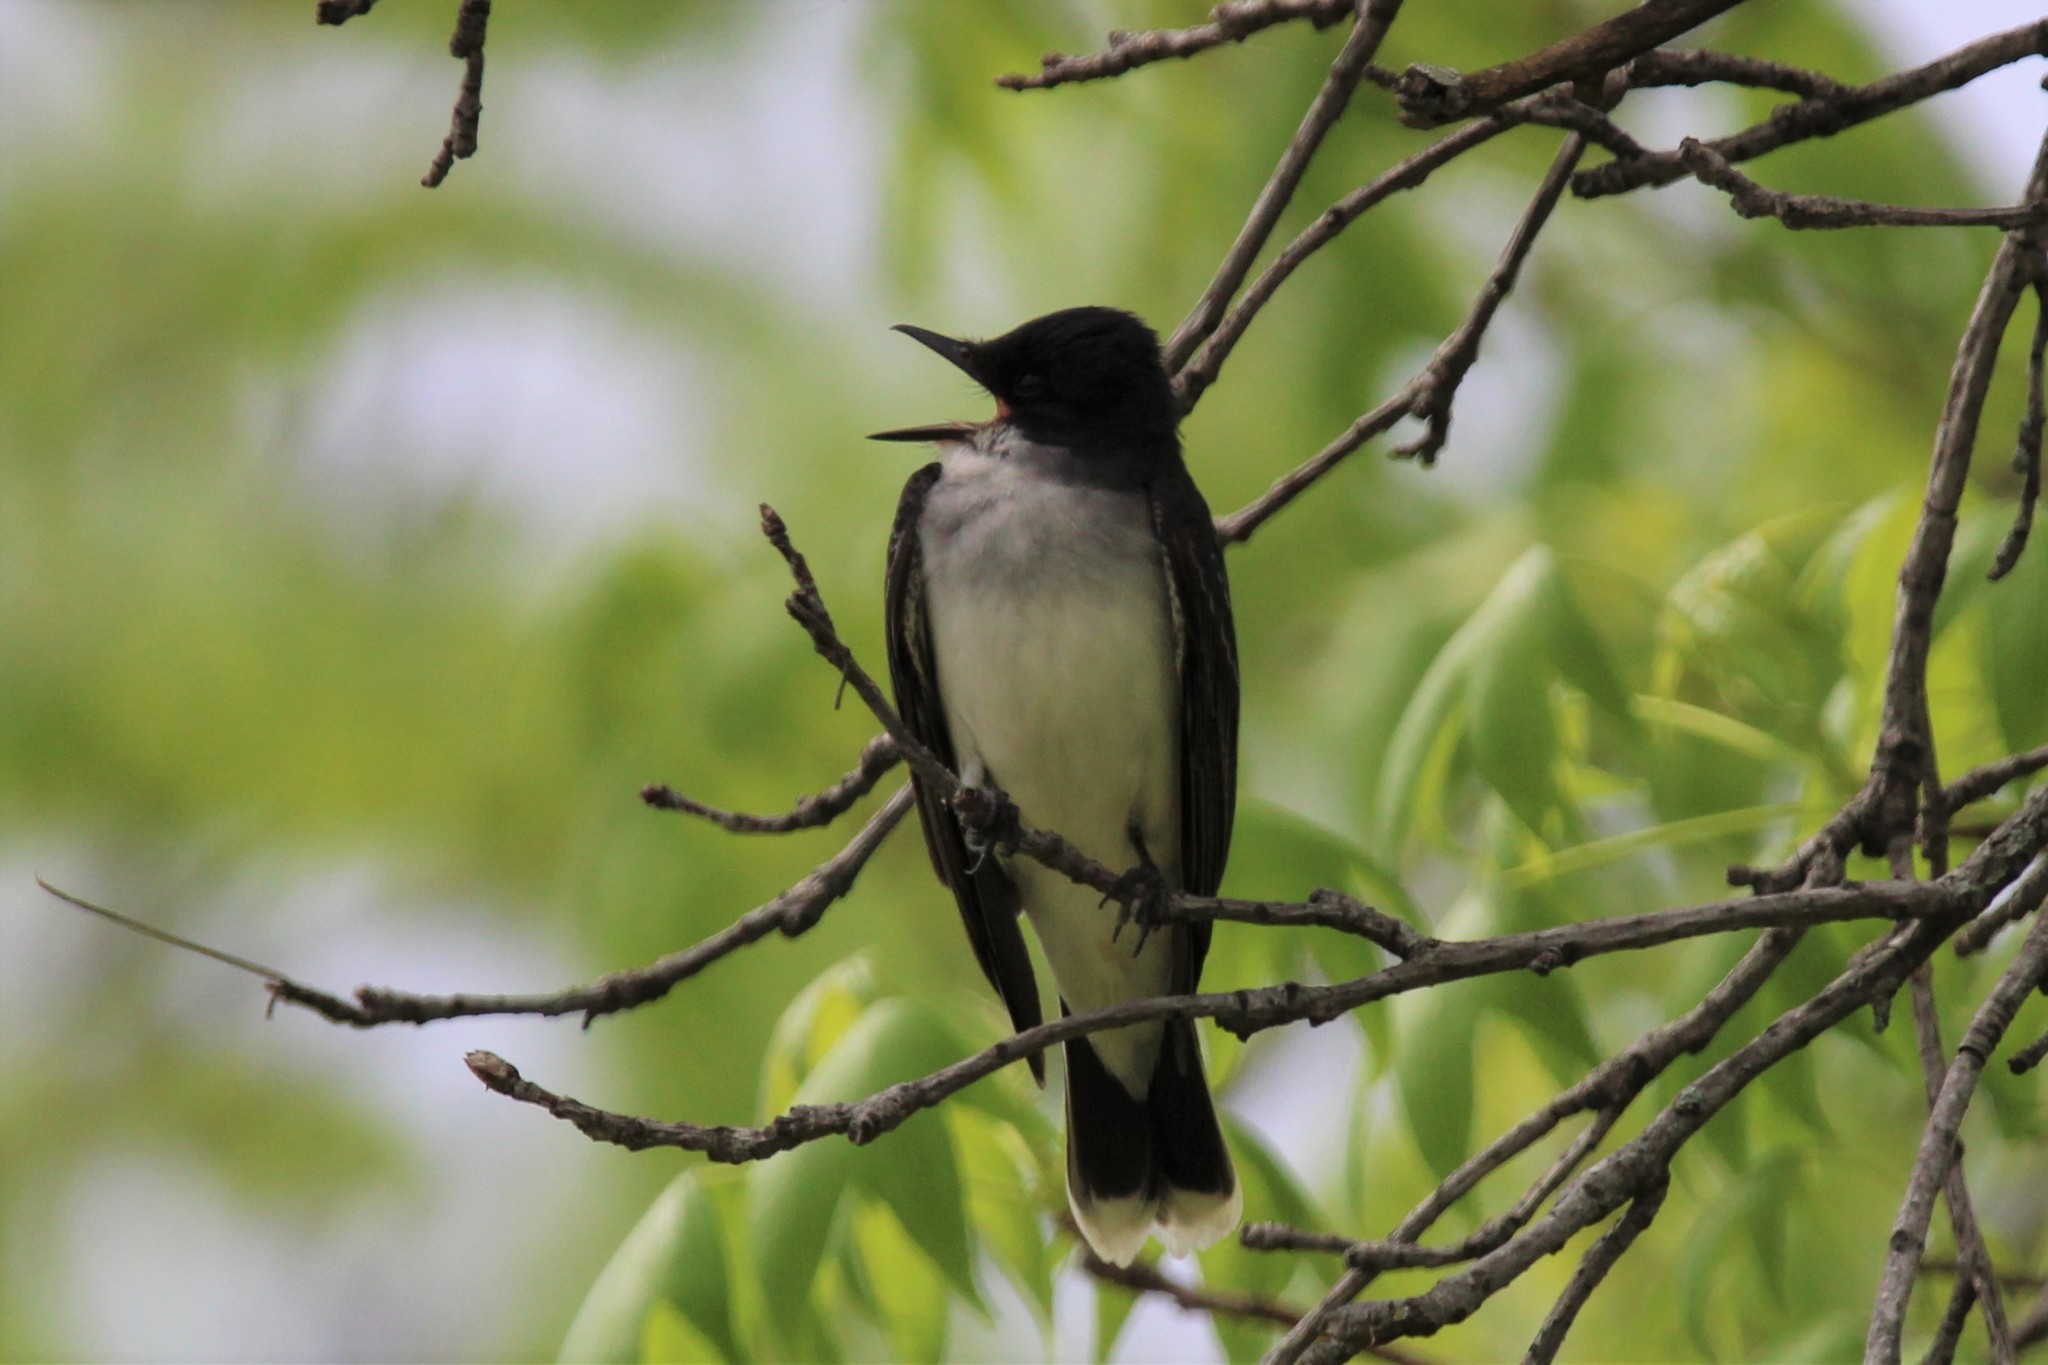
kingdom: Animalia
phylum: Chordata
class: Aves
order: Passeriformes
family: Tyrannidae
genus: Tyrannus
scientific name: Tyrannus tyrannus
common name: Eastern kingbird
